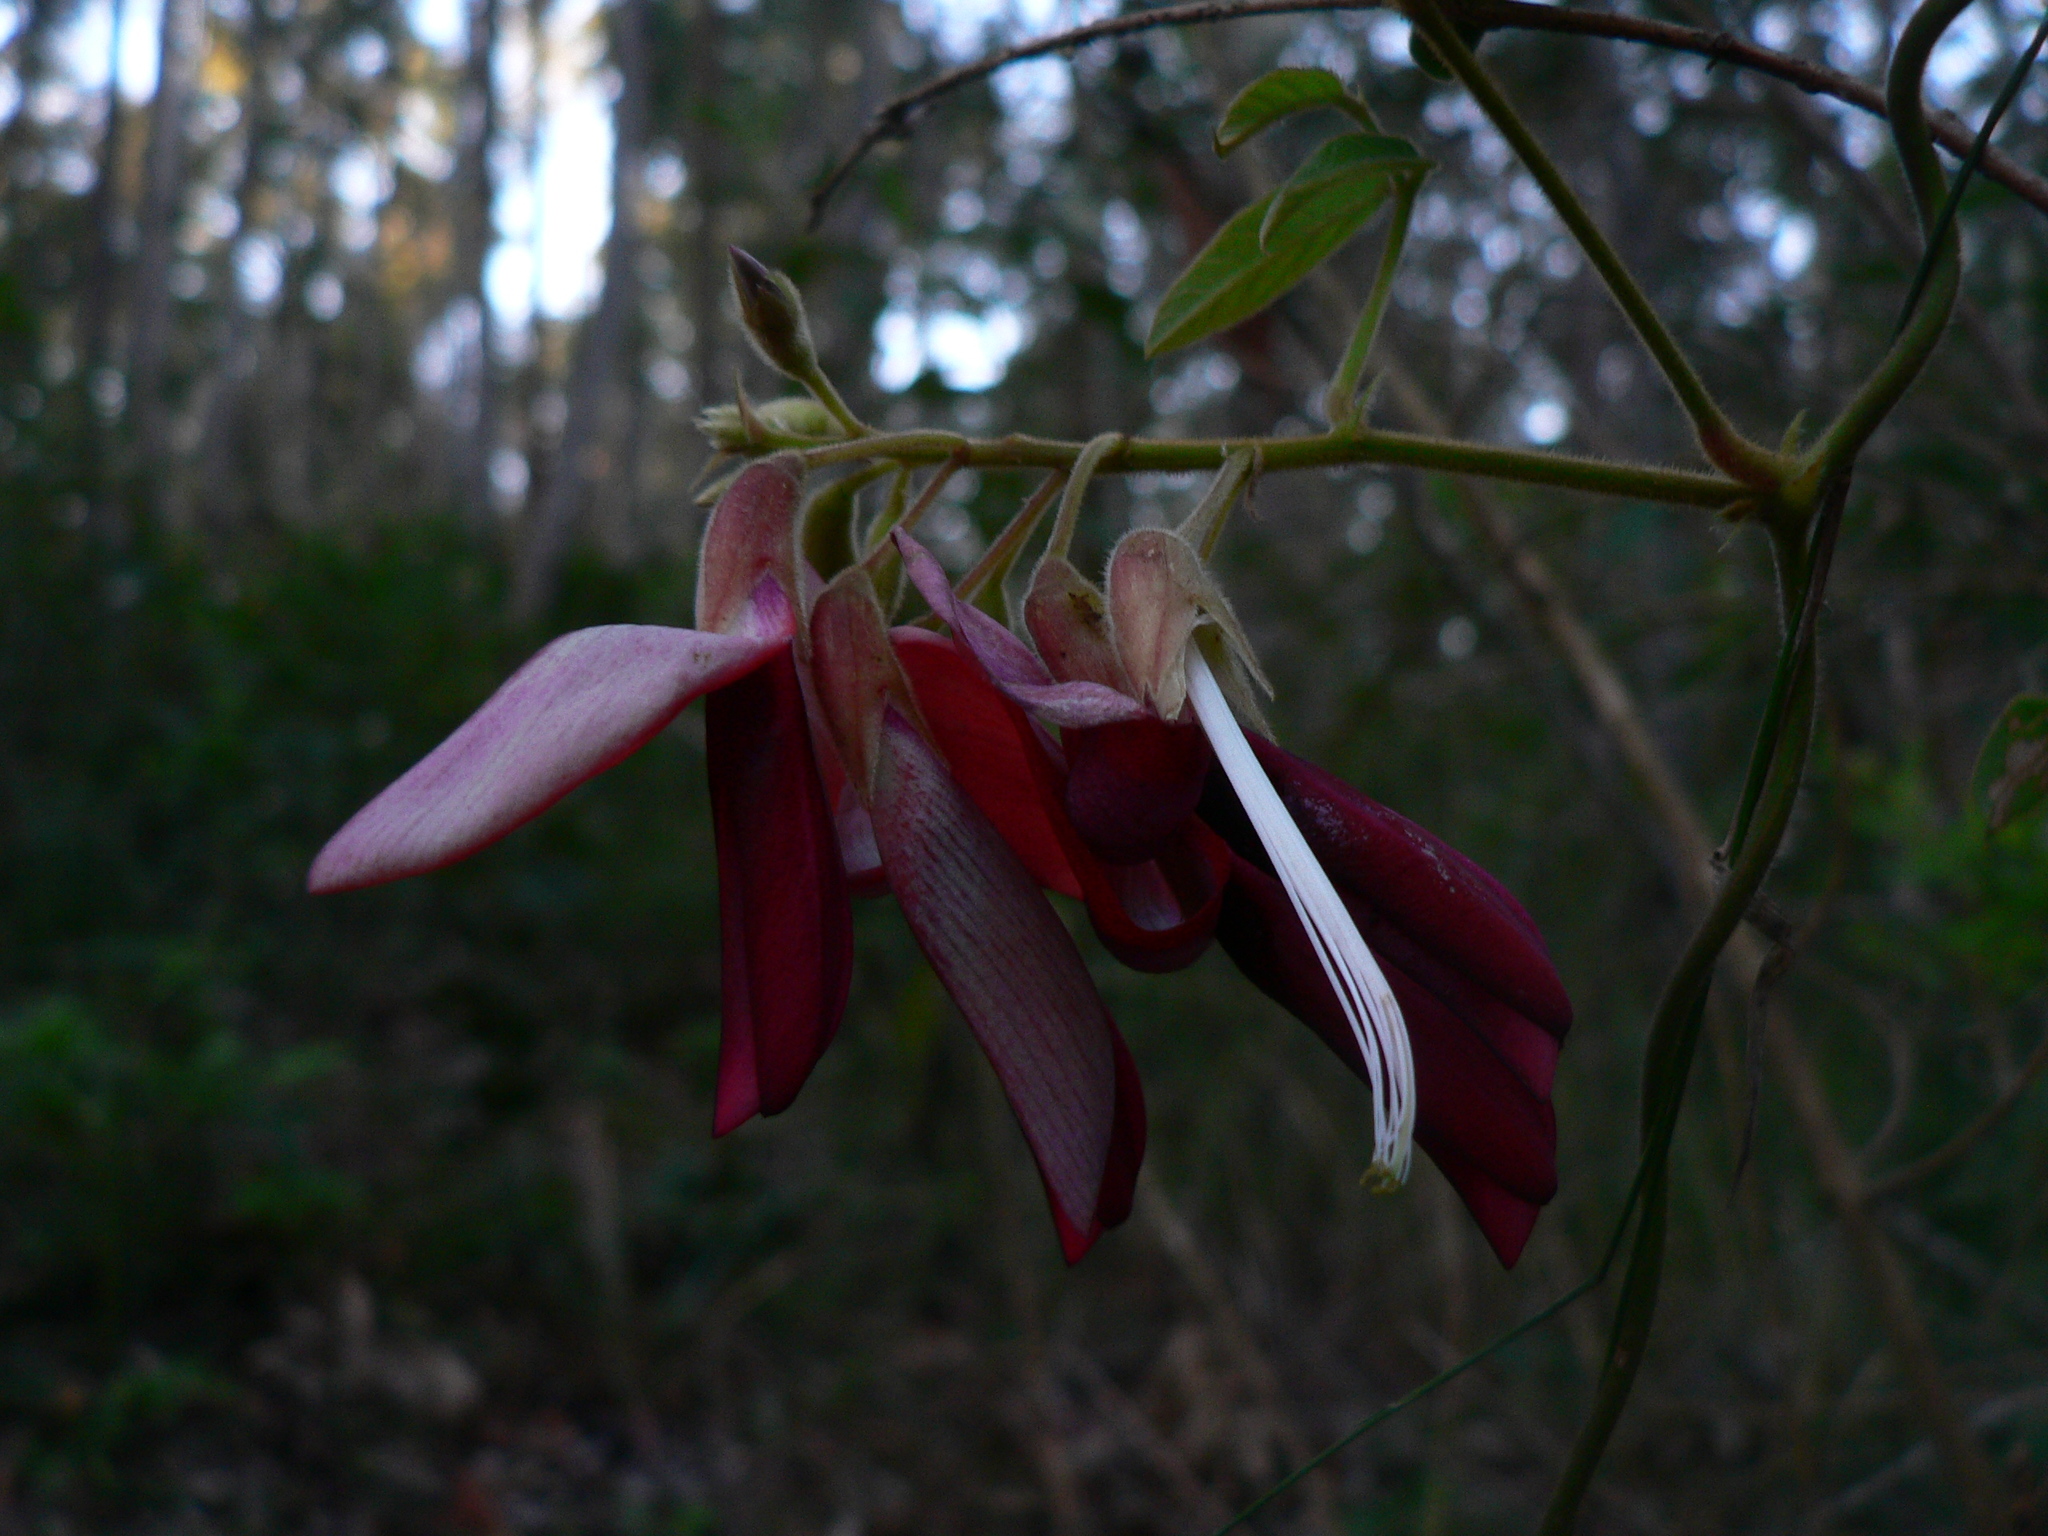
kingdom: Plantae
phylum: Tracheophyta
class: Magnoliopsida
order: Fabales
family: Fabaceae
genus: Kennedia
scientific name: Kennedia rubicunda
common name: Red kennedy-pea
